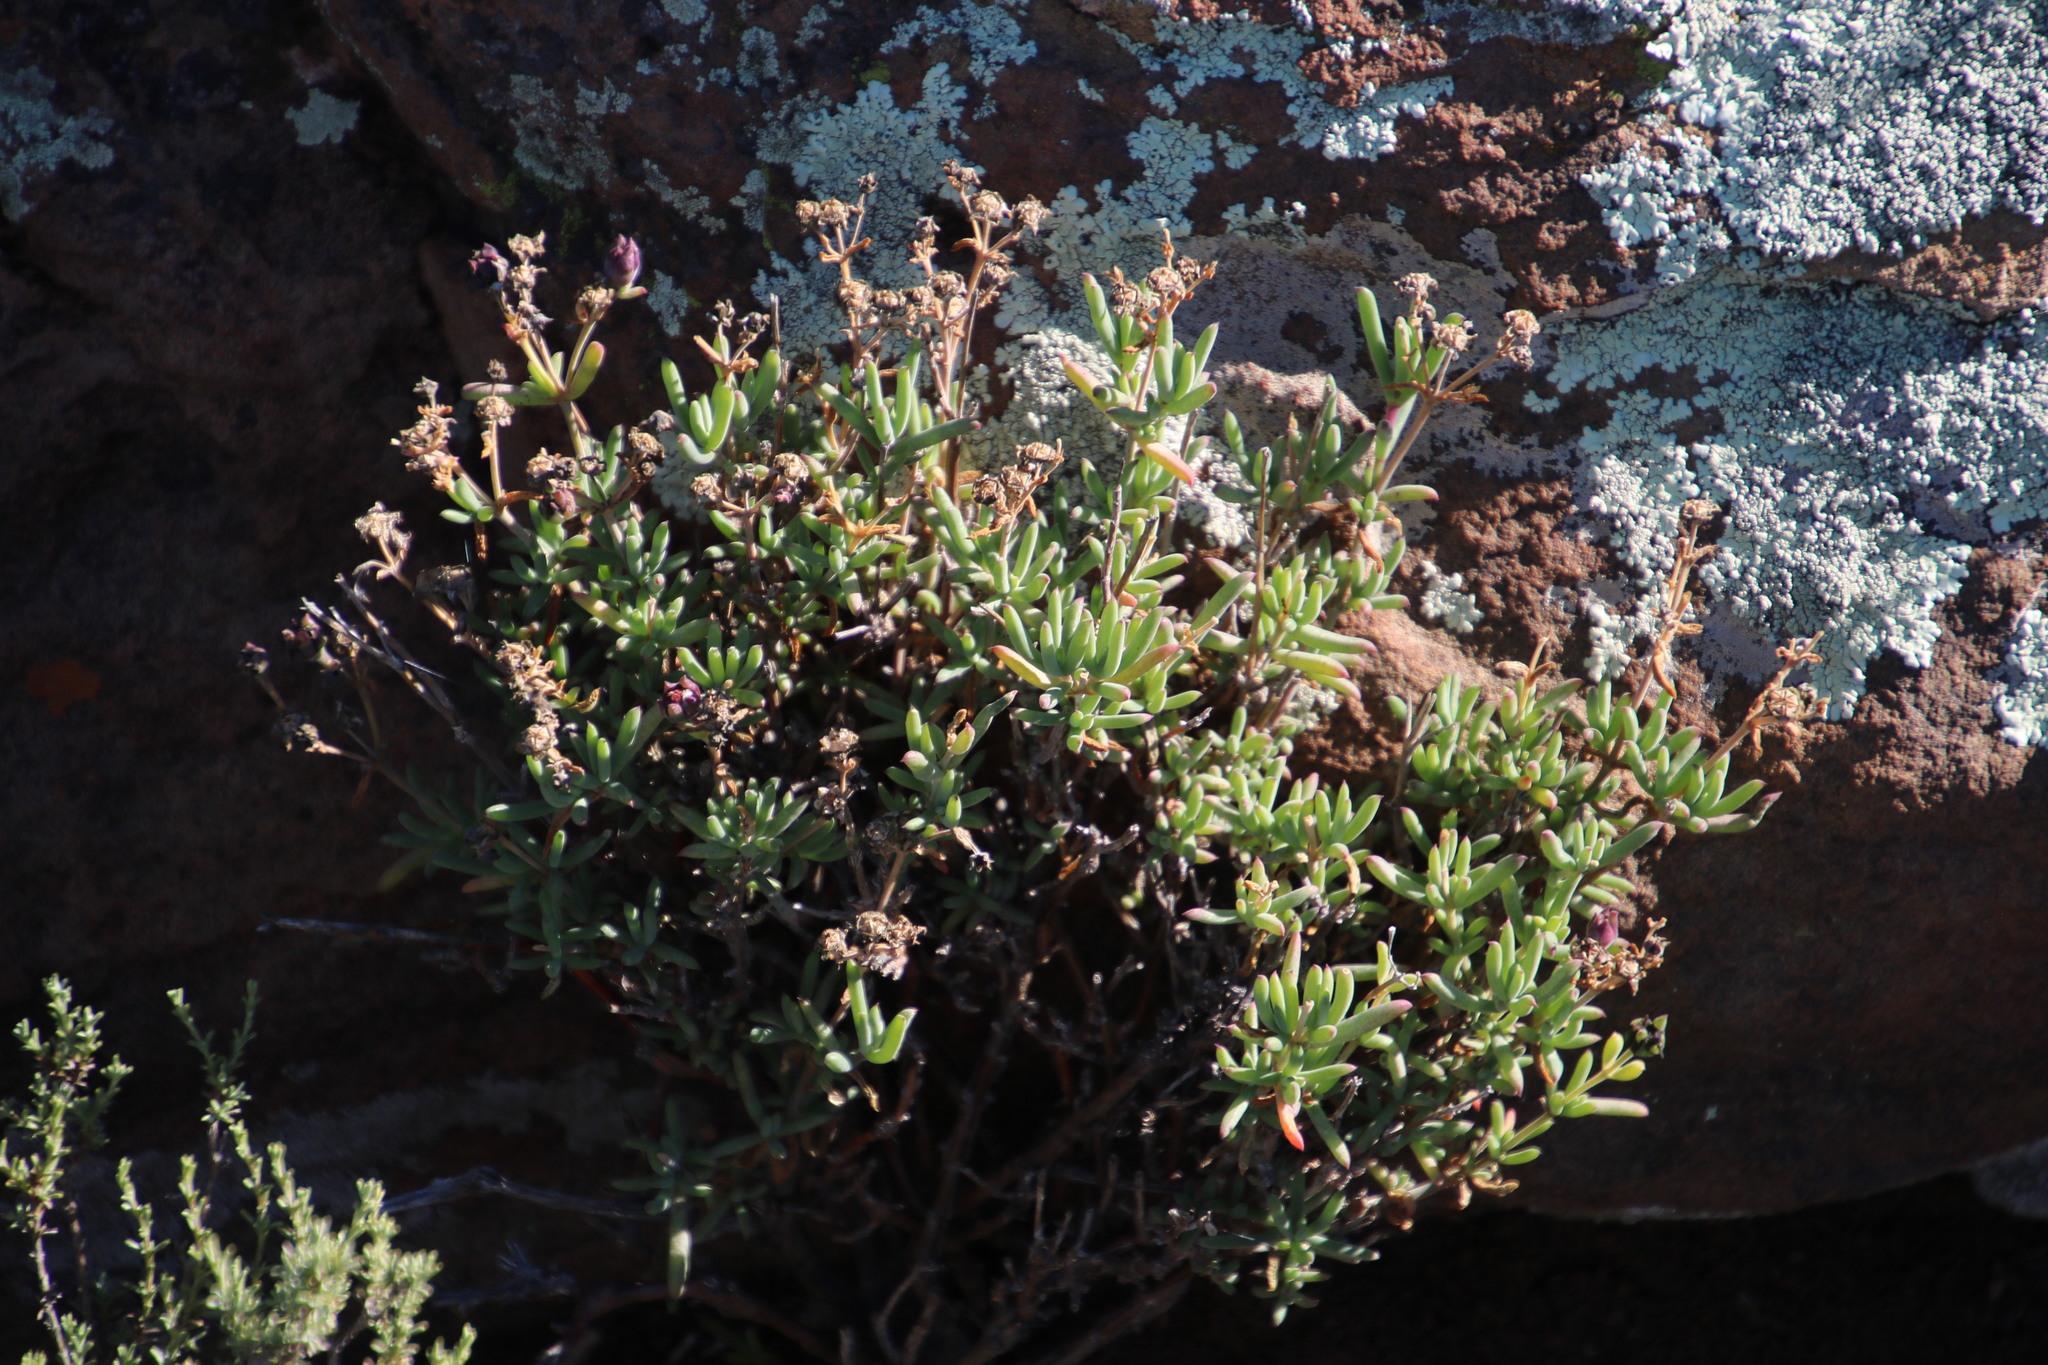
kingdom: Plantae
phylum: Tracheophyta
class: Magnoliopsida
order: Caryophyllales
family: Aizoaceae
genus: Delosperma
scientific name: Delosperma ornatulum
